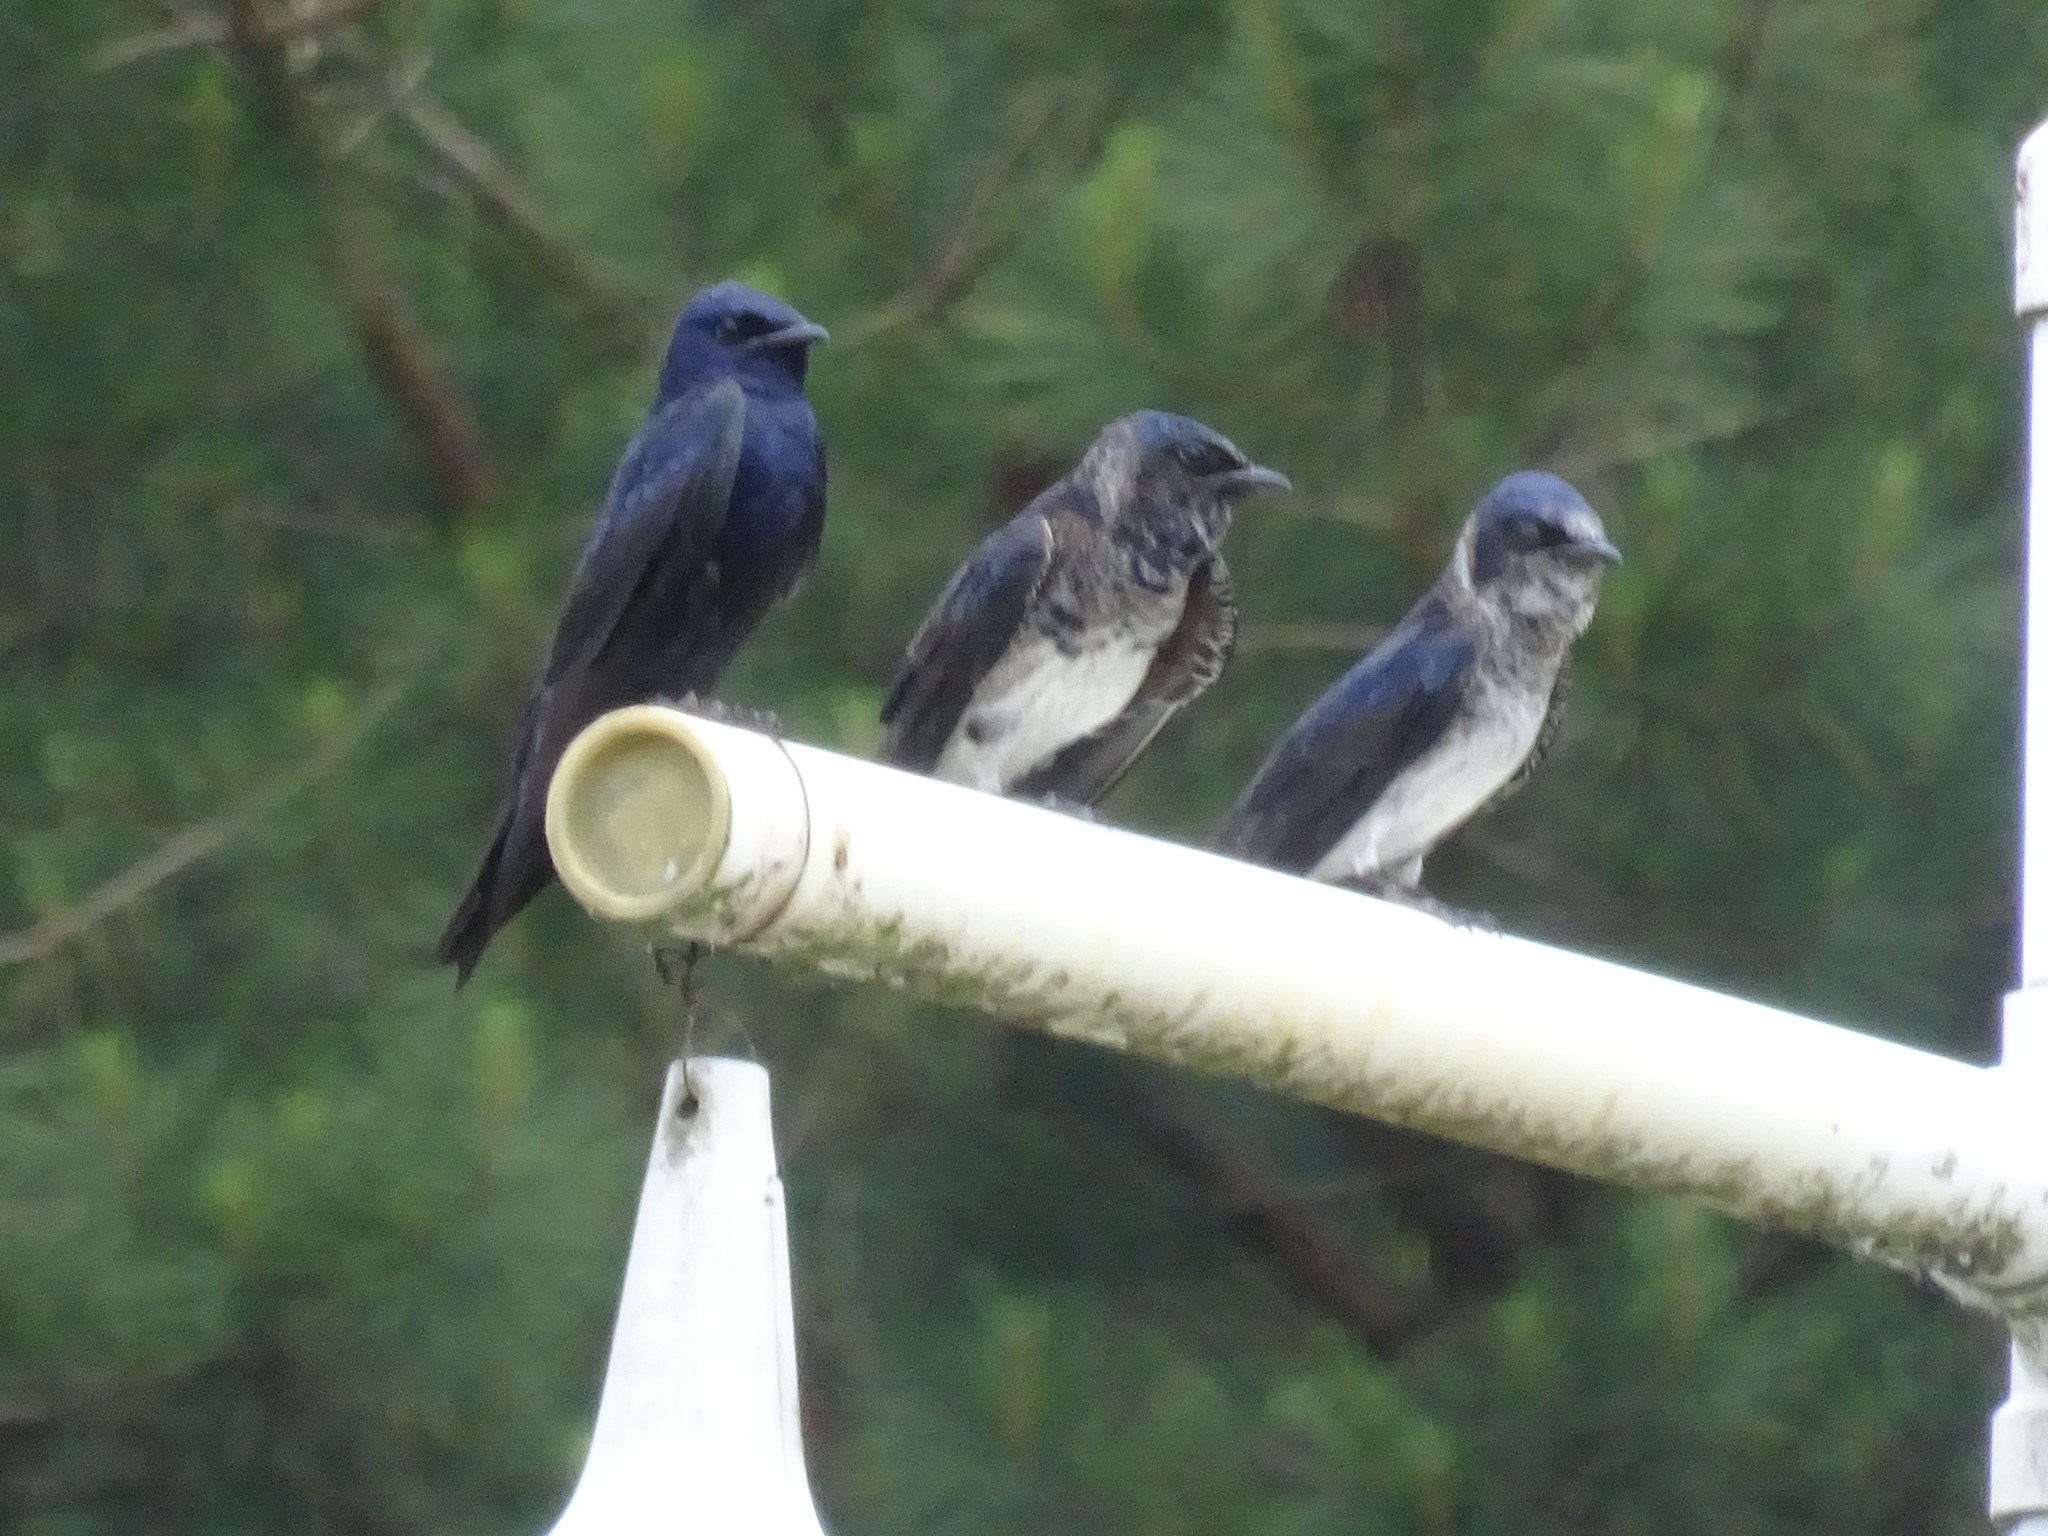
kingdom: Animalia
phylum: Chordata
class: Aves
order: Passeriformes
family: Hirundinidae
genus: Progne
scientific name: Progne subis
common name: Purple martin
